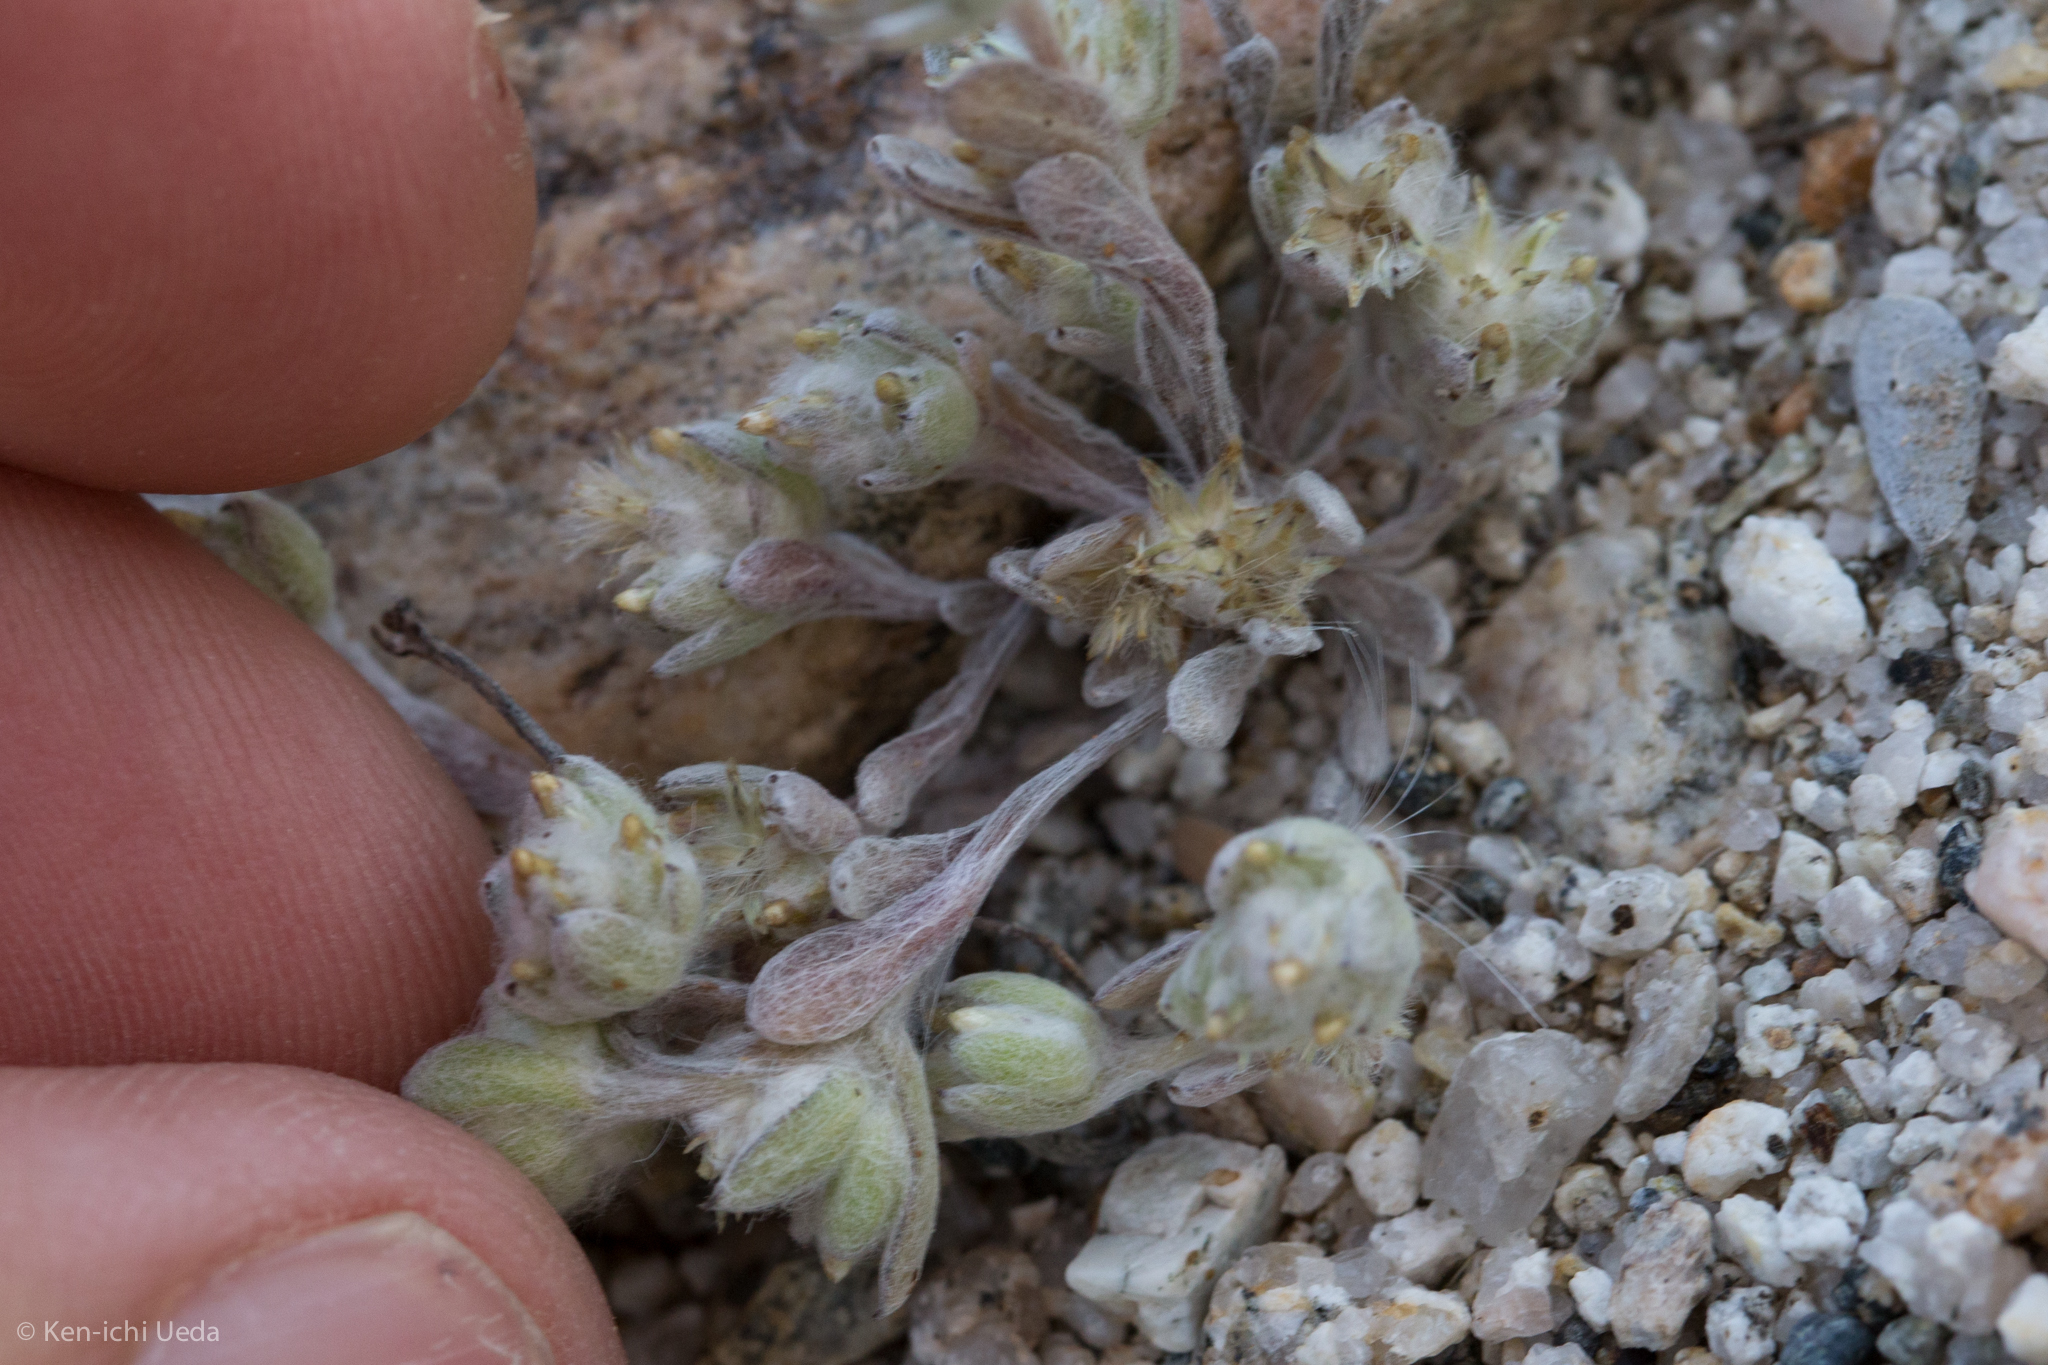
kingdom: Plantae
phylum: Tracheophyta
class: Magnoliopsida
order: Asterales
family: Asteraceae
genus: Logfia
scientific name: Logfia depressa
